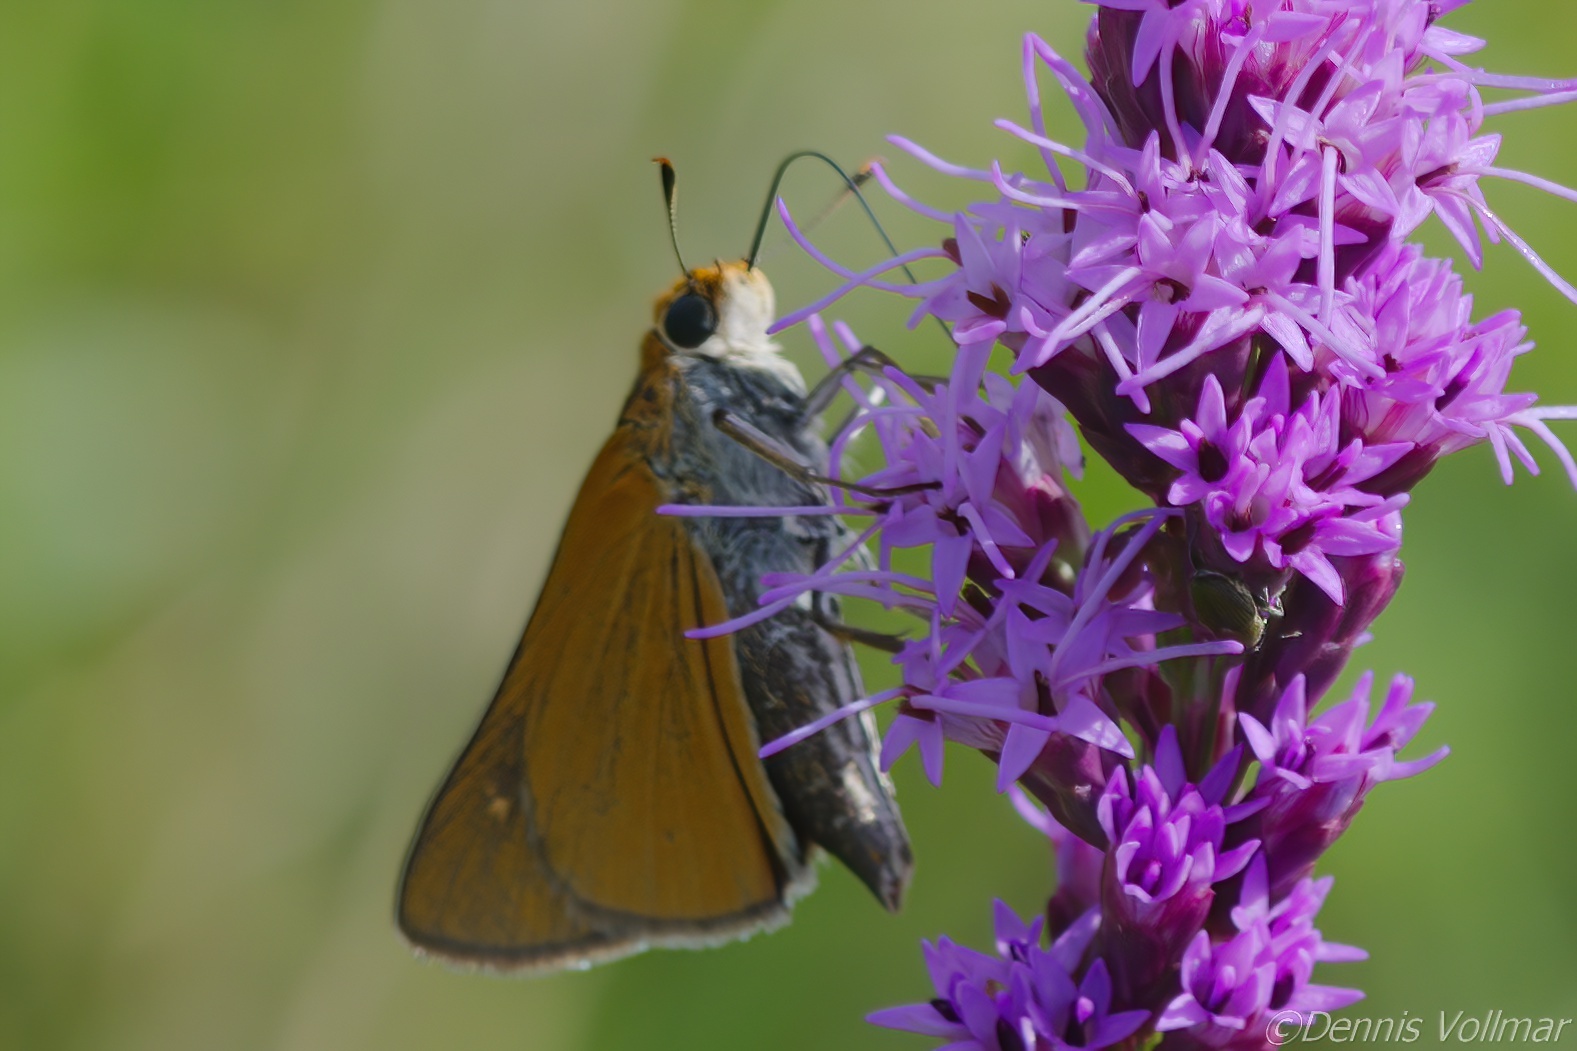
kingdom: Animalia
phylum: Arthropoda
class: Insecta
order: Lepidoptera
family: Hesperiidae
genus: Euphyes
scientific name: Euphyes arpa
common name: Palmetto skipper
